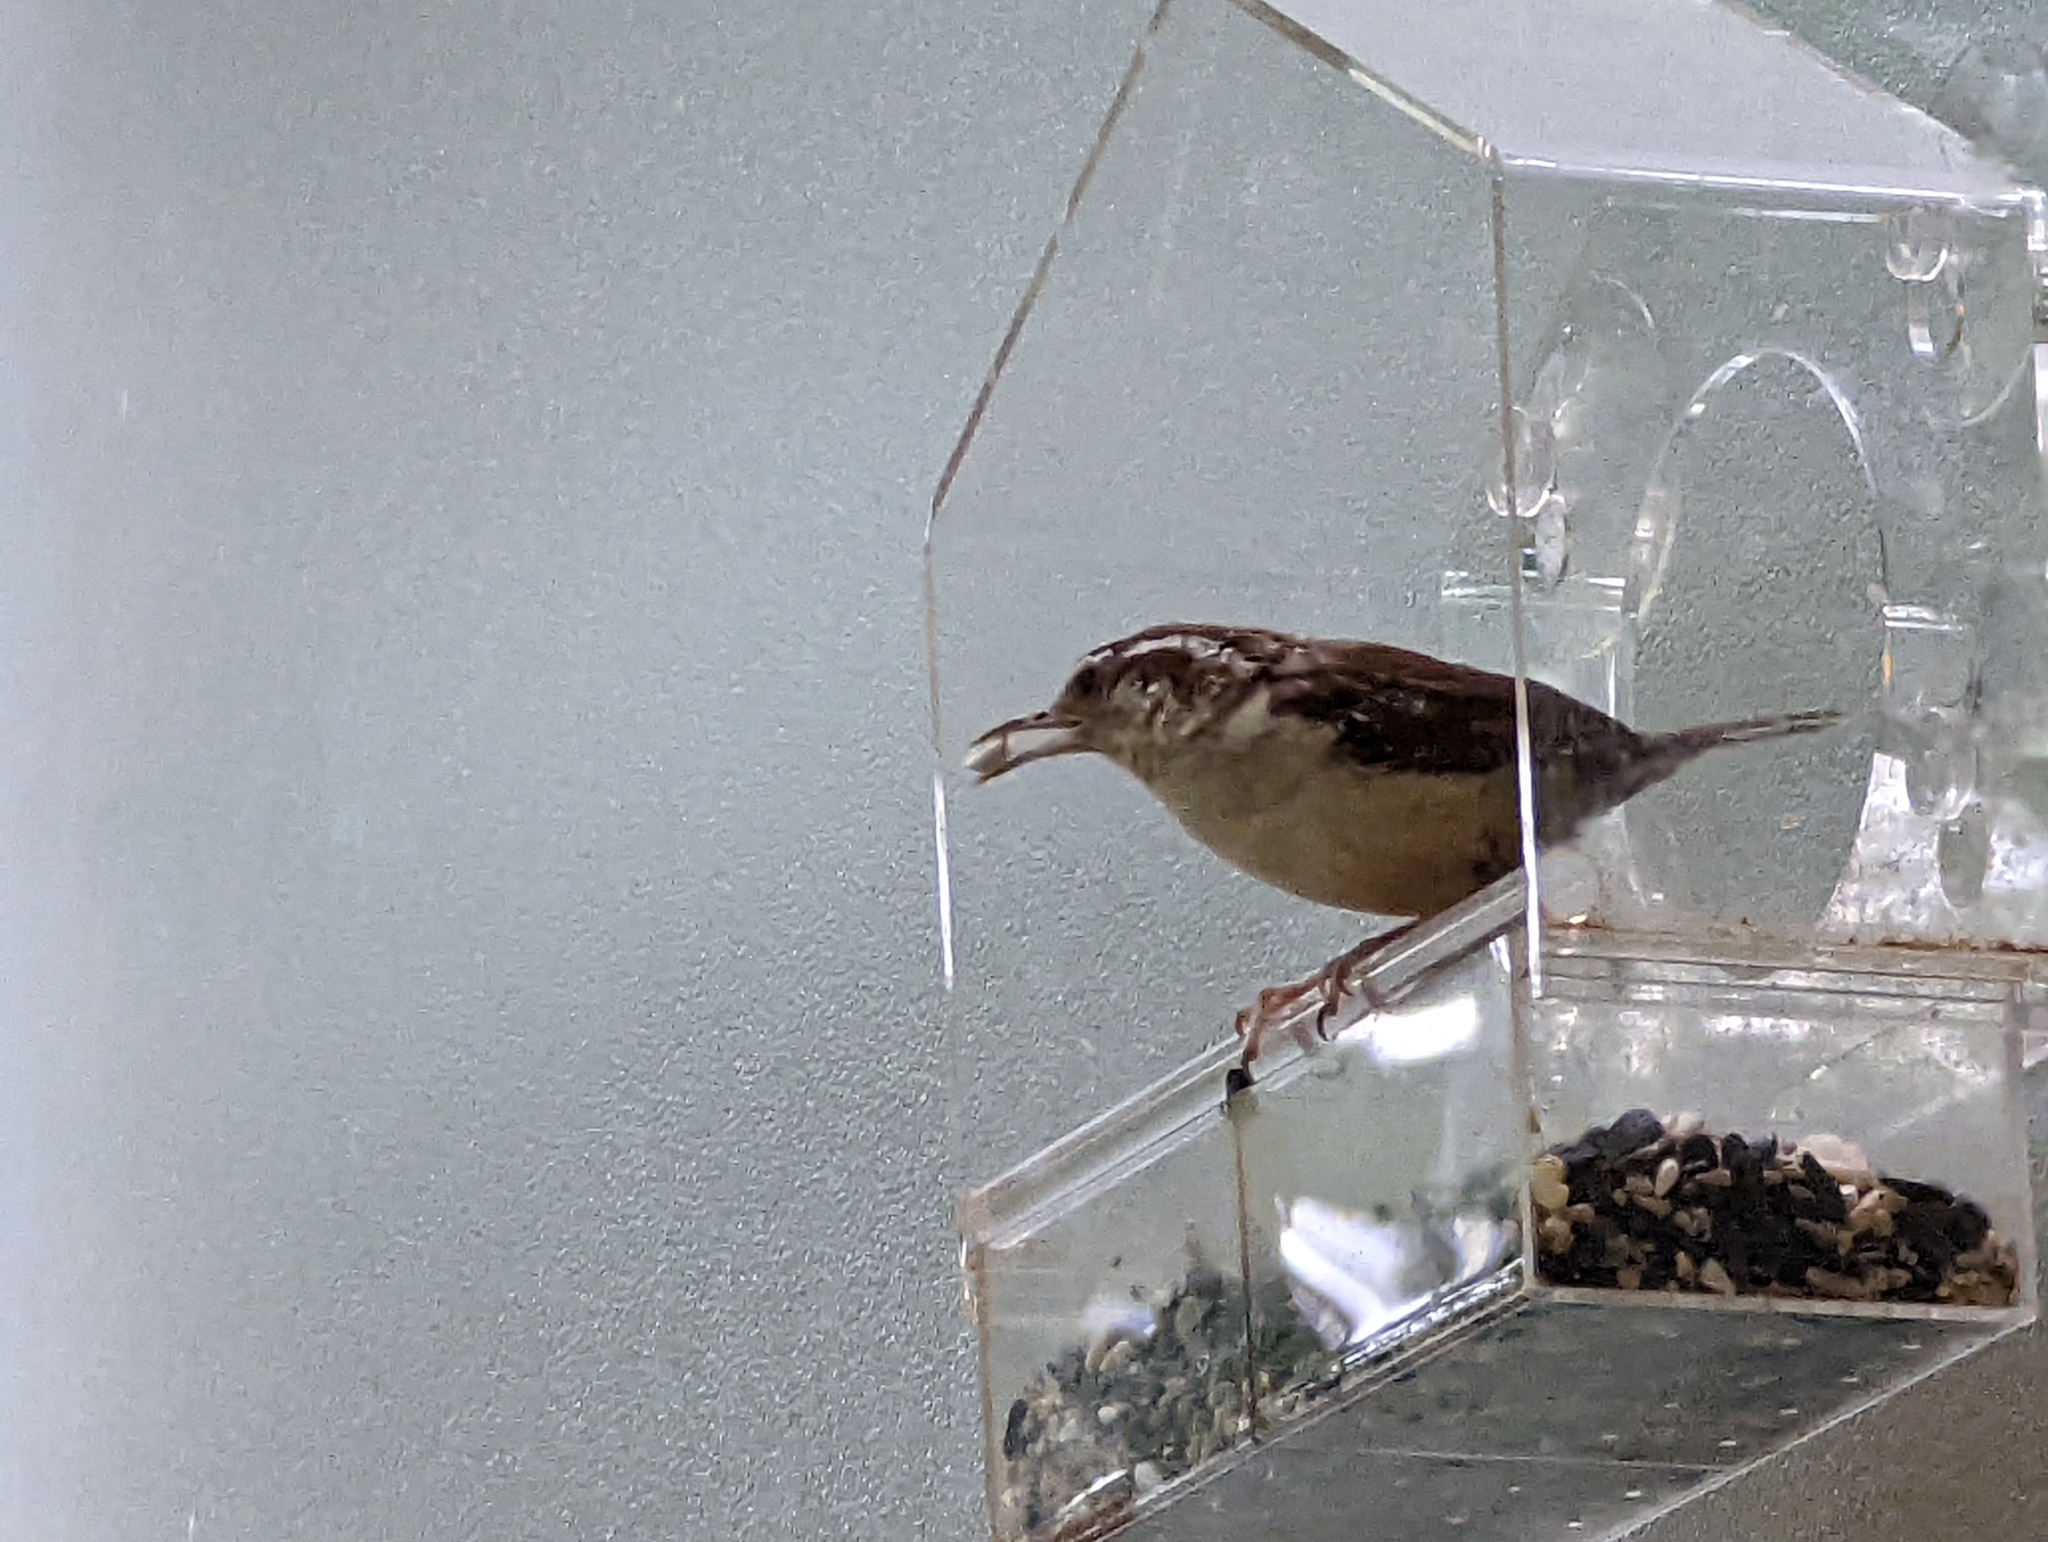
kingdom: Animalia
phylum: Chordata
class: Aves
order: Passeriformes
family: Troglodytidae
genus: Thryothorus
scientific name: Thryothorus ludovicianus
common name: Carolina wren
